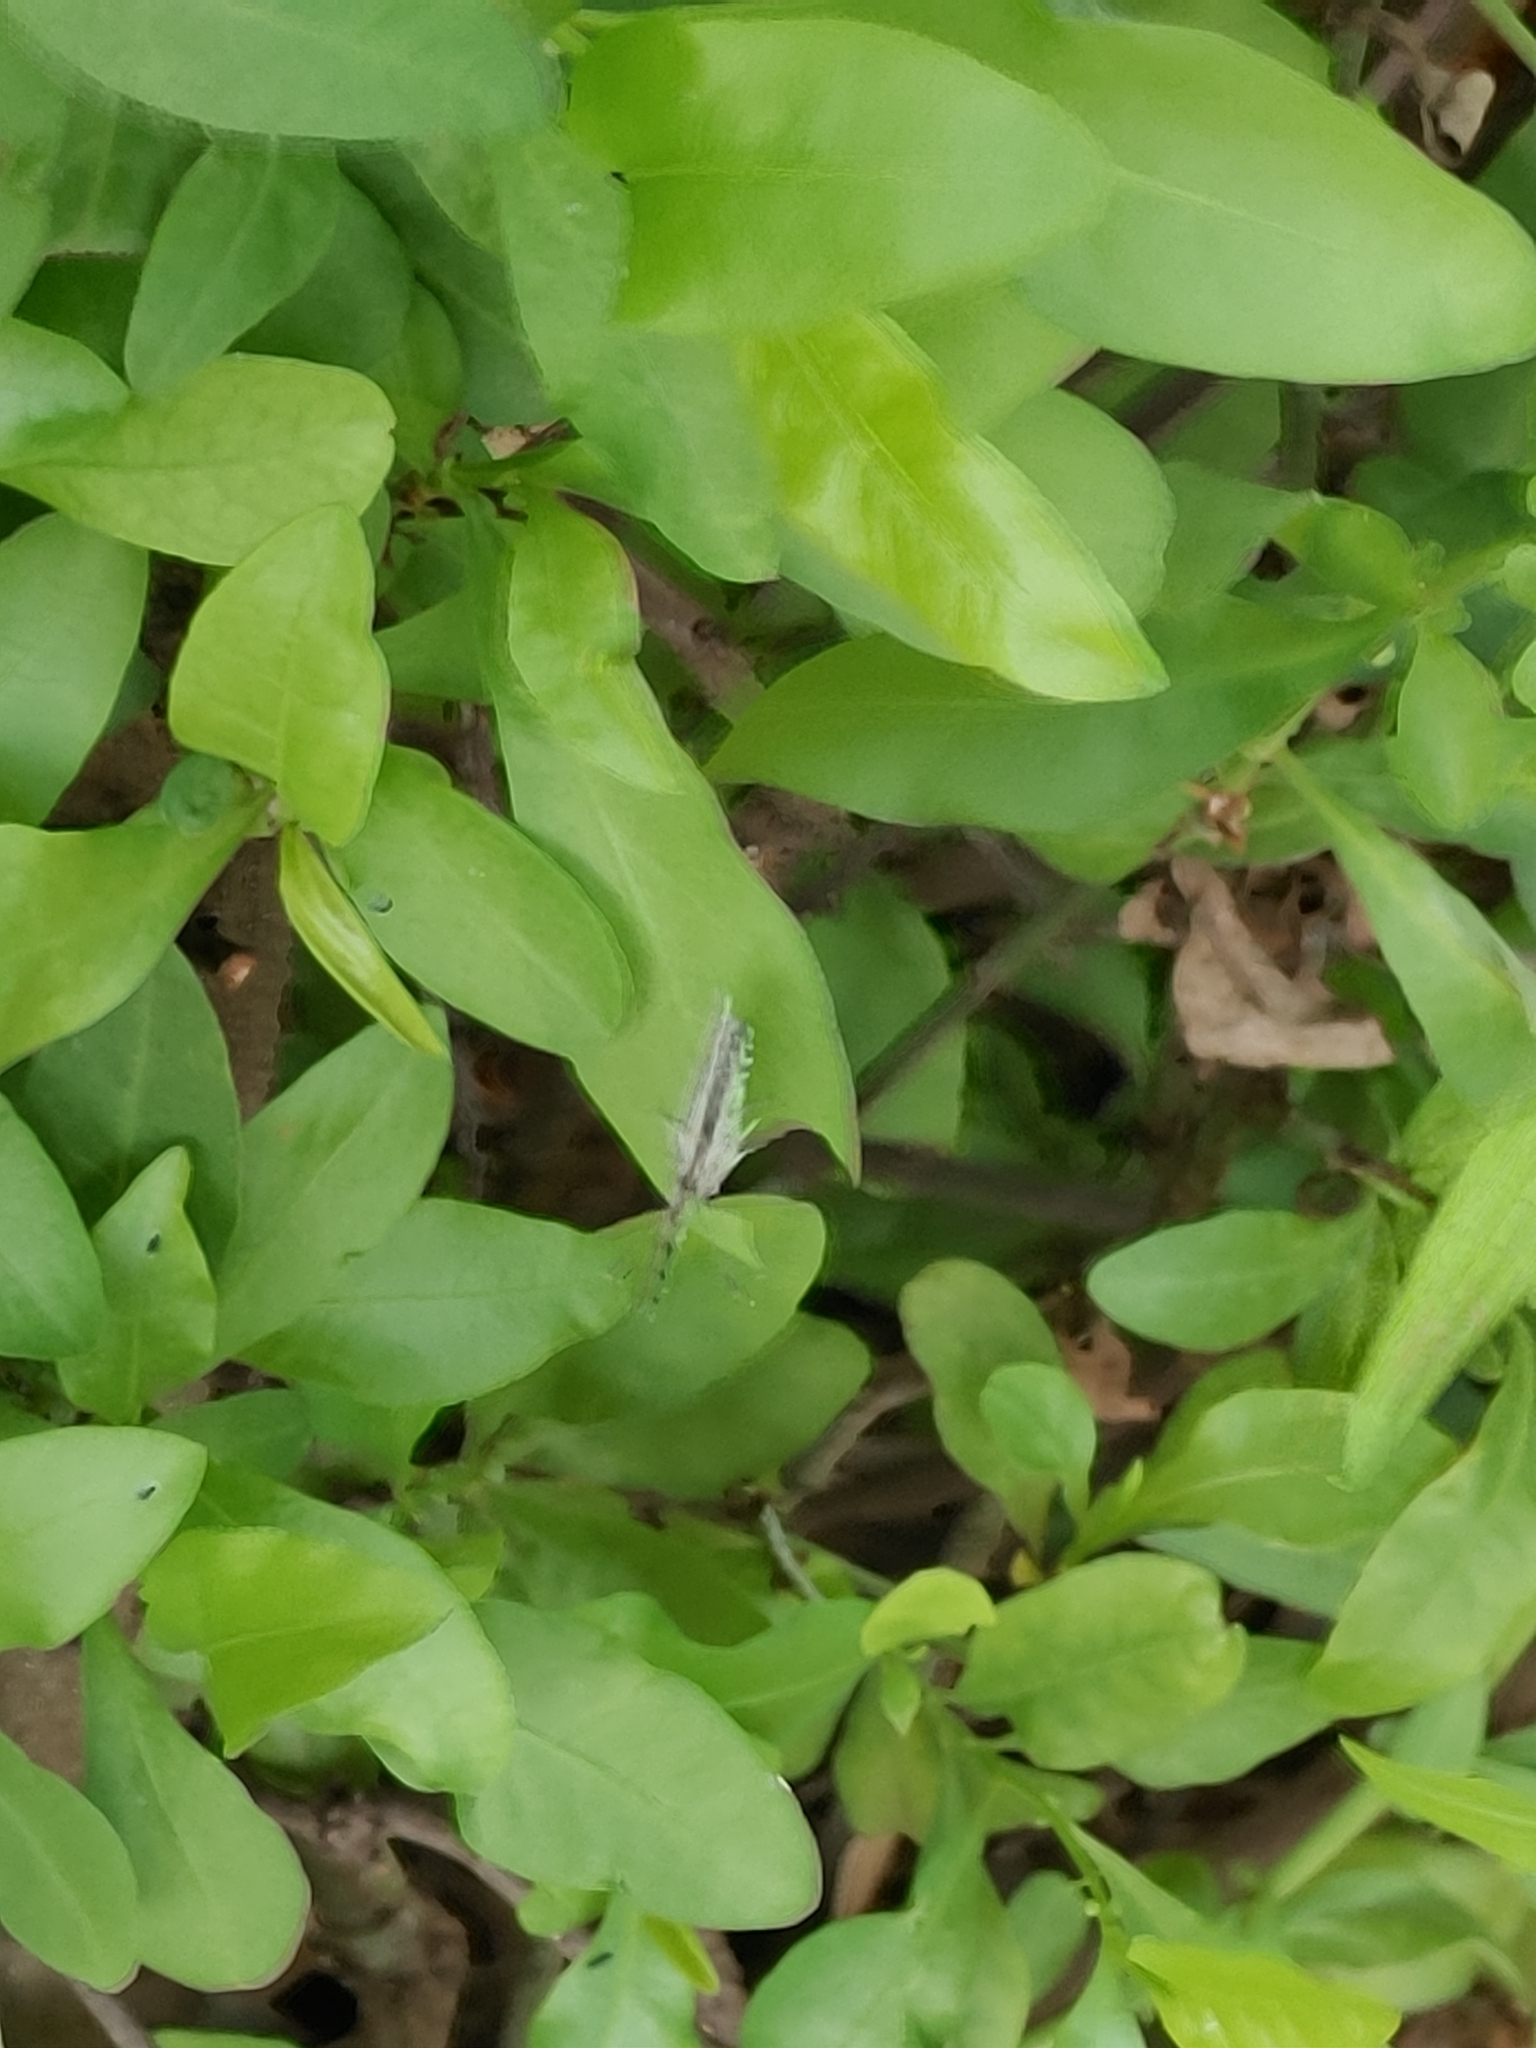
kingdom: Animalia
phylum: Arthropoda
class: Insecta
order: Lepidoptera
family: Lycaenidae
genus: Leptotes
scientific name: Leptotes cassius
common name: Cassius blue
